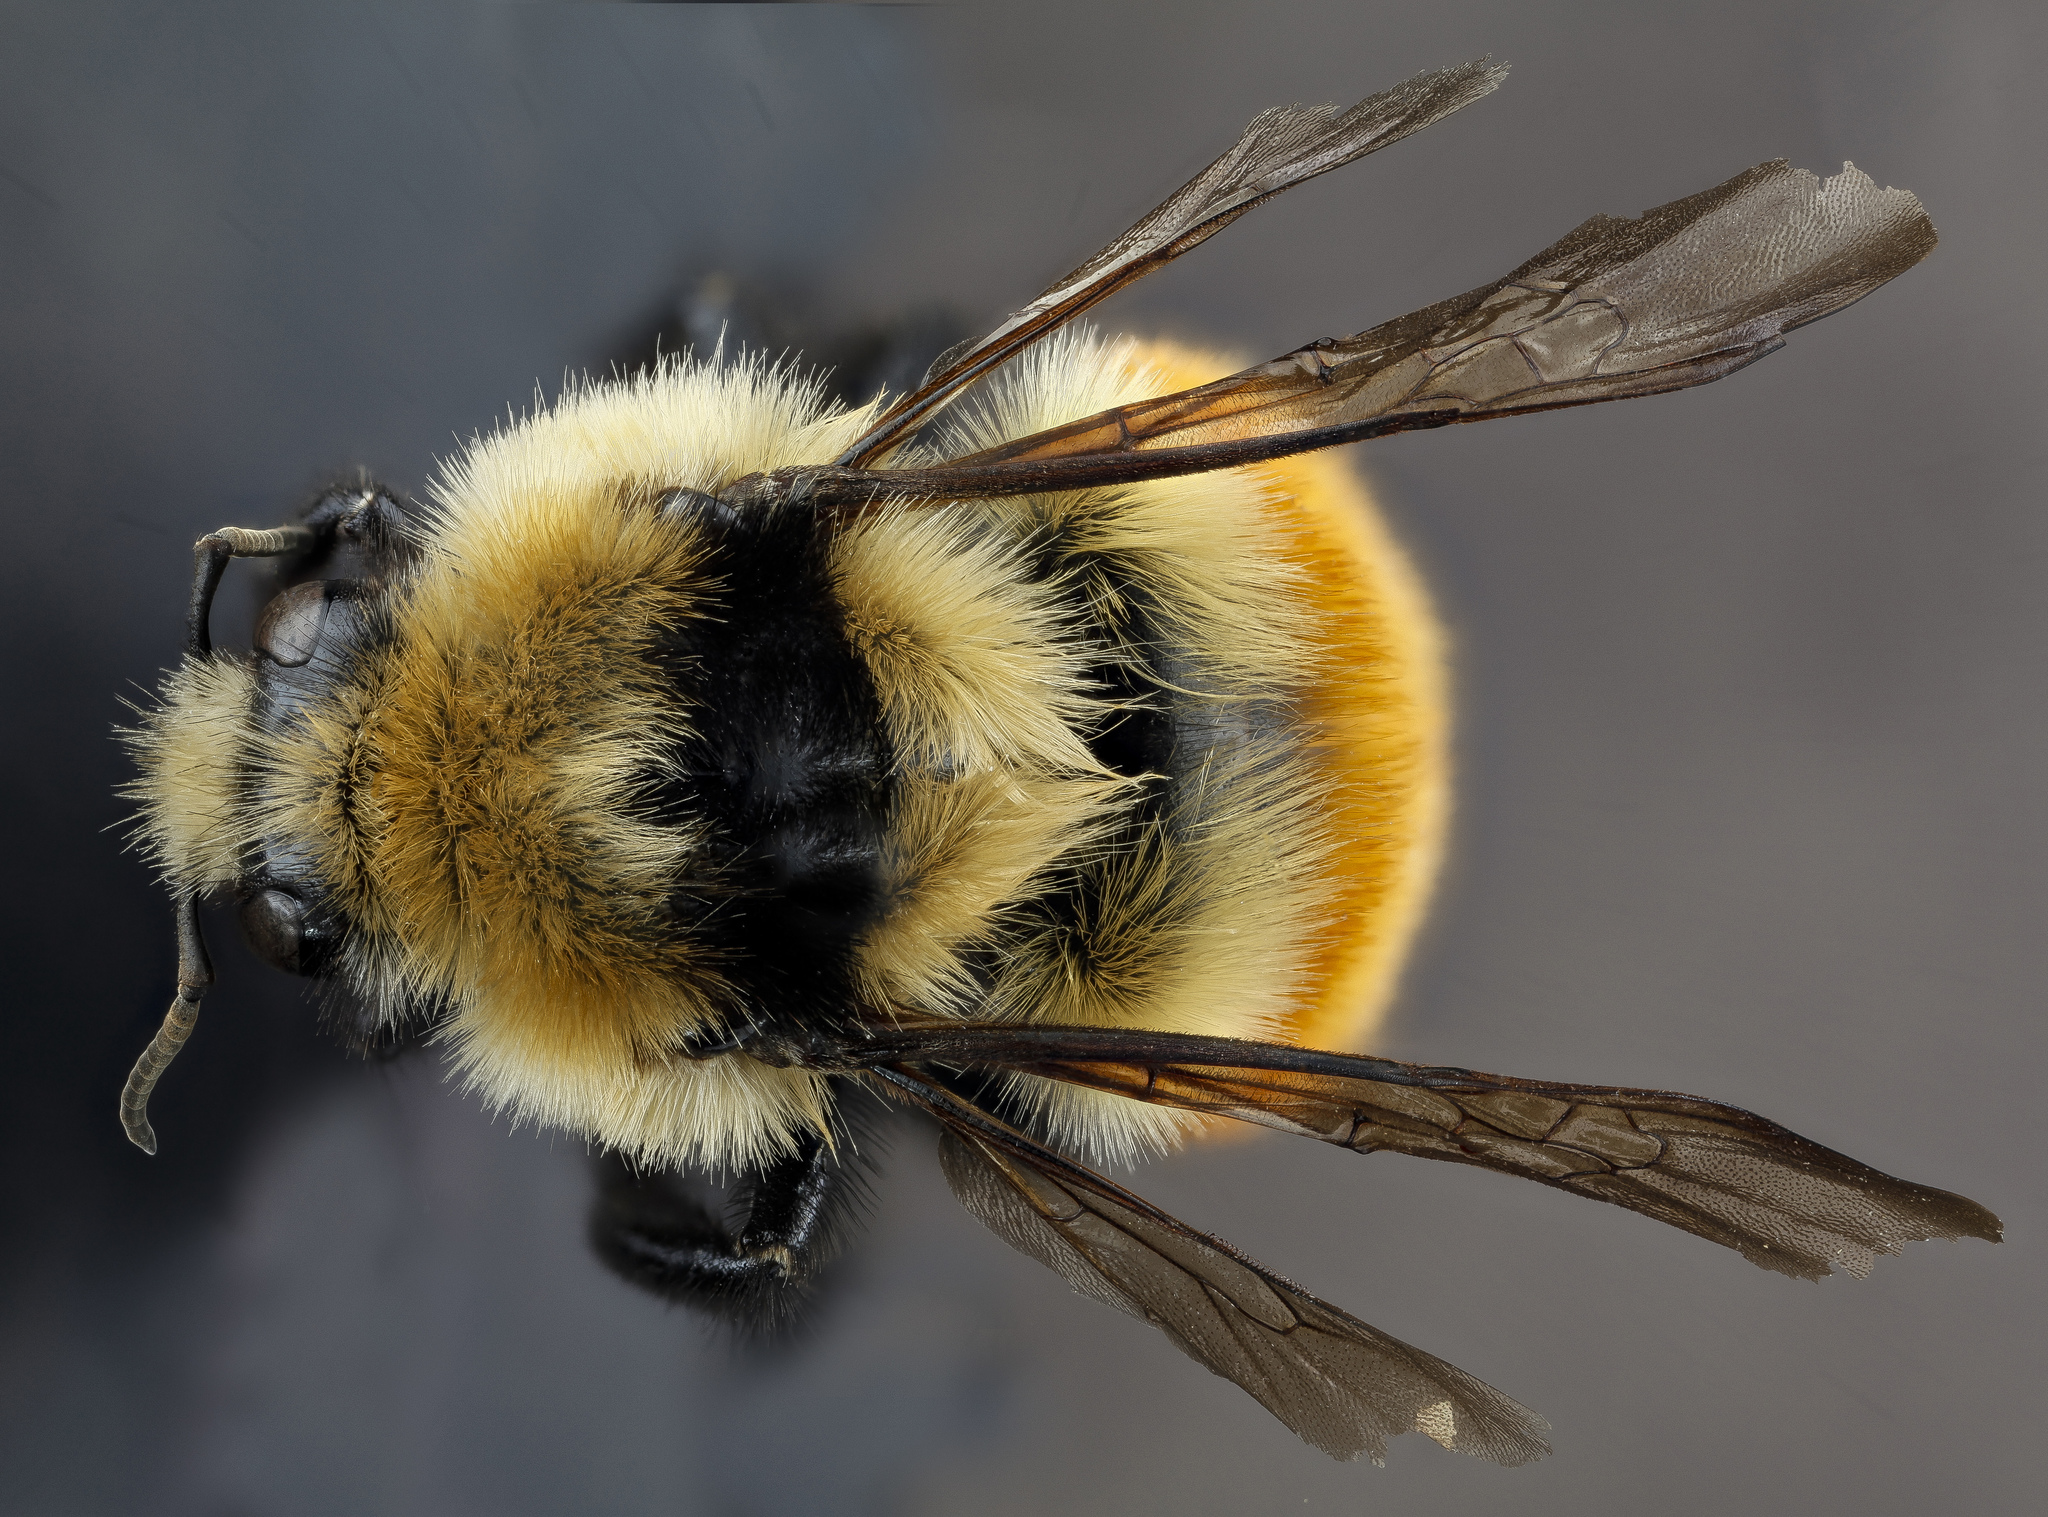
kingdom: Animalia
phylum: Arthropoda
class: Insecta
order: Hymenoptera
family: Apidae
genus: Bombus
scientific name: Bombus huntii
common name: Hunt bumble bee
